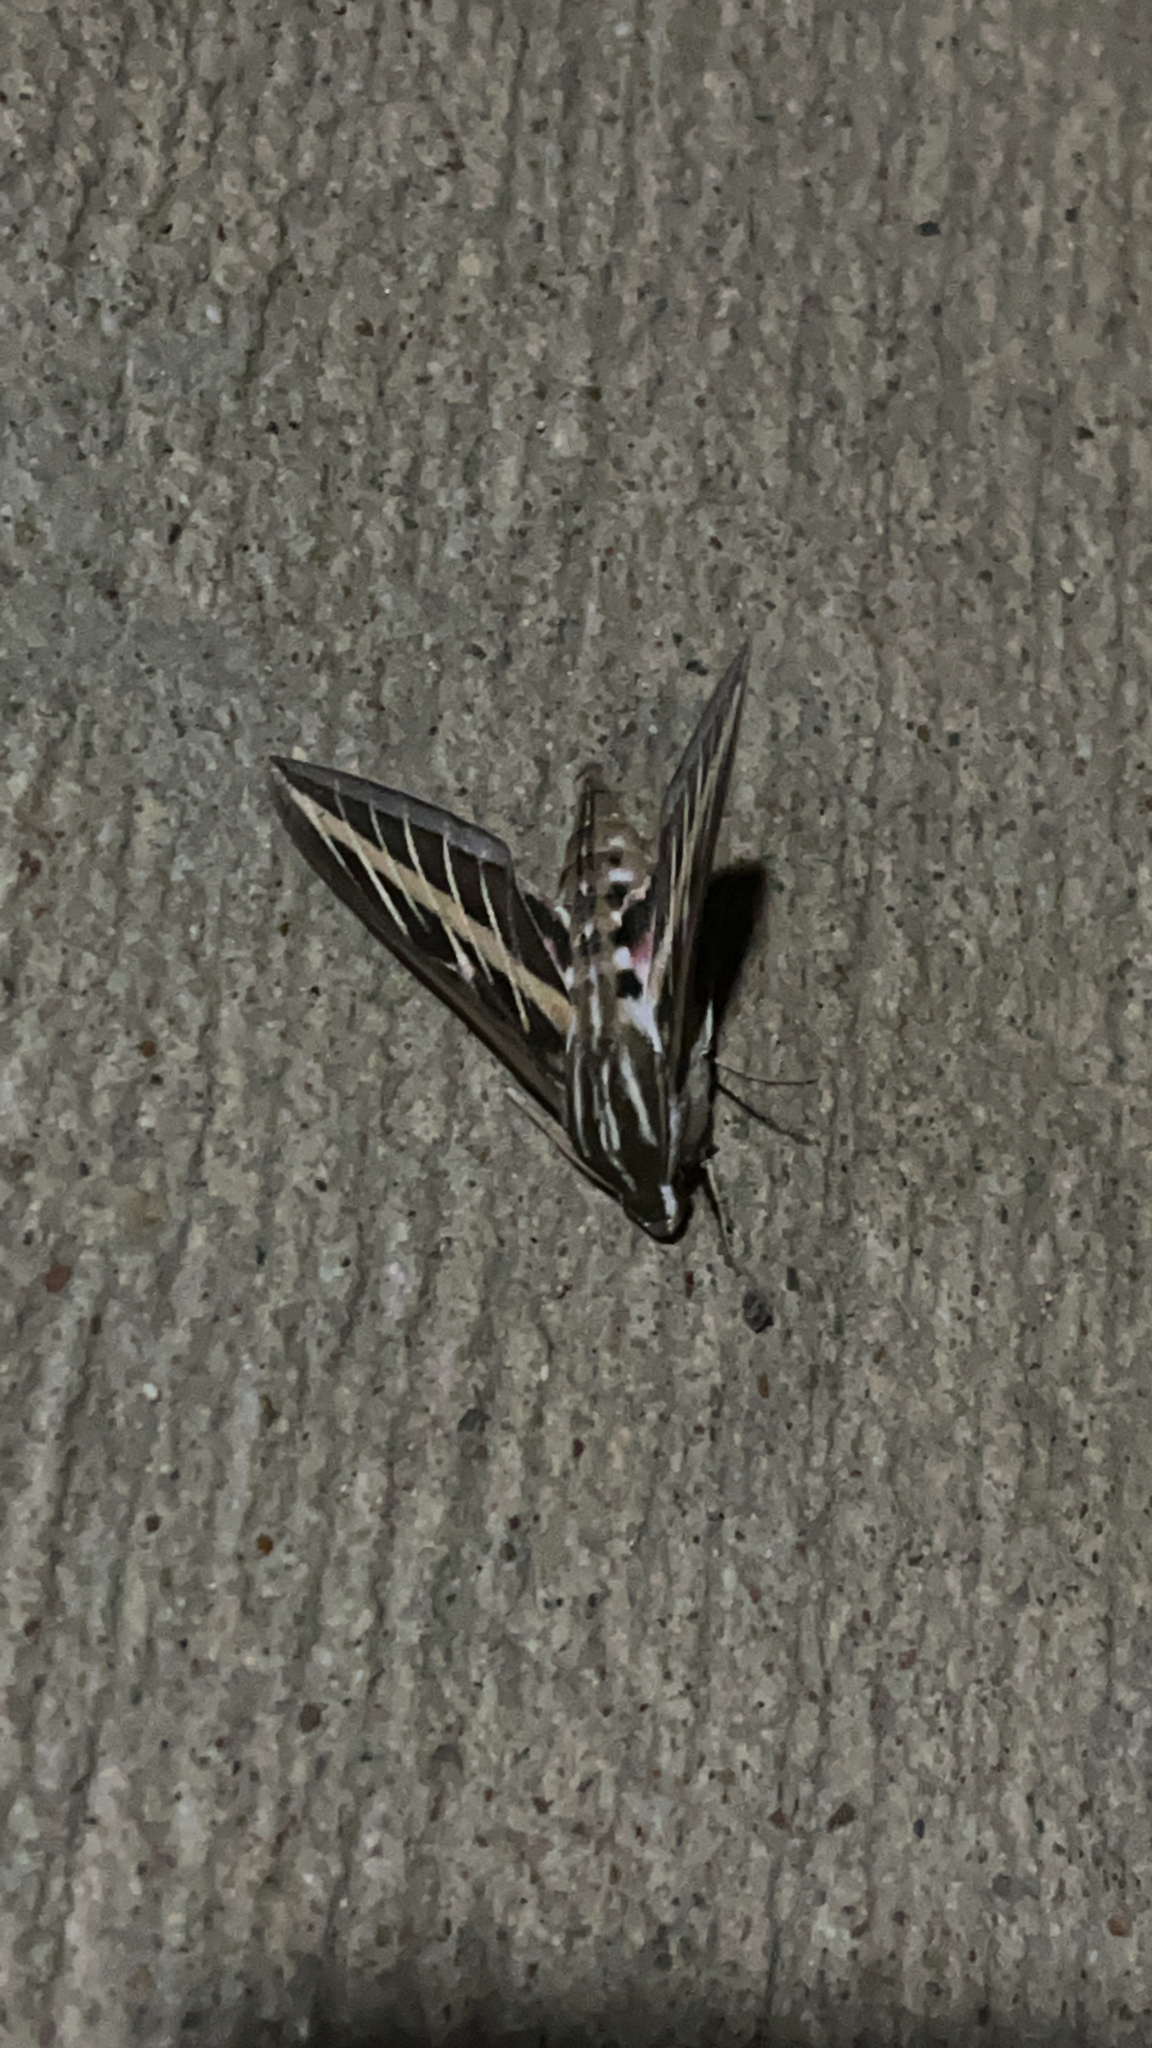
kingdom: Animalia
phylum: Arthropoda
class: Insecta
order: Lepidoptera
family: Sphingidae
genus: Hyles
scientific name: Hyles lineata
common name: White-lined sphinx
